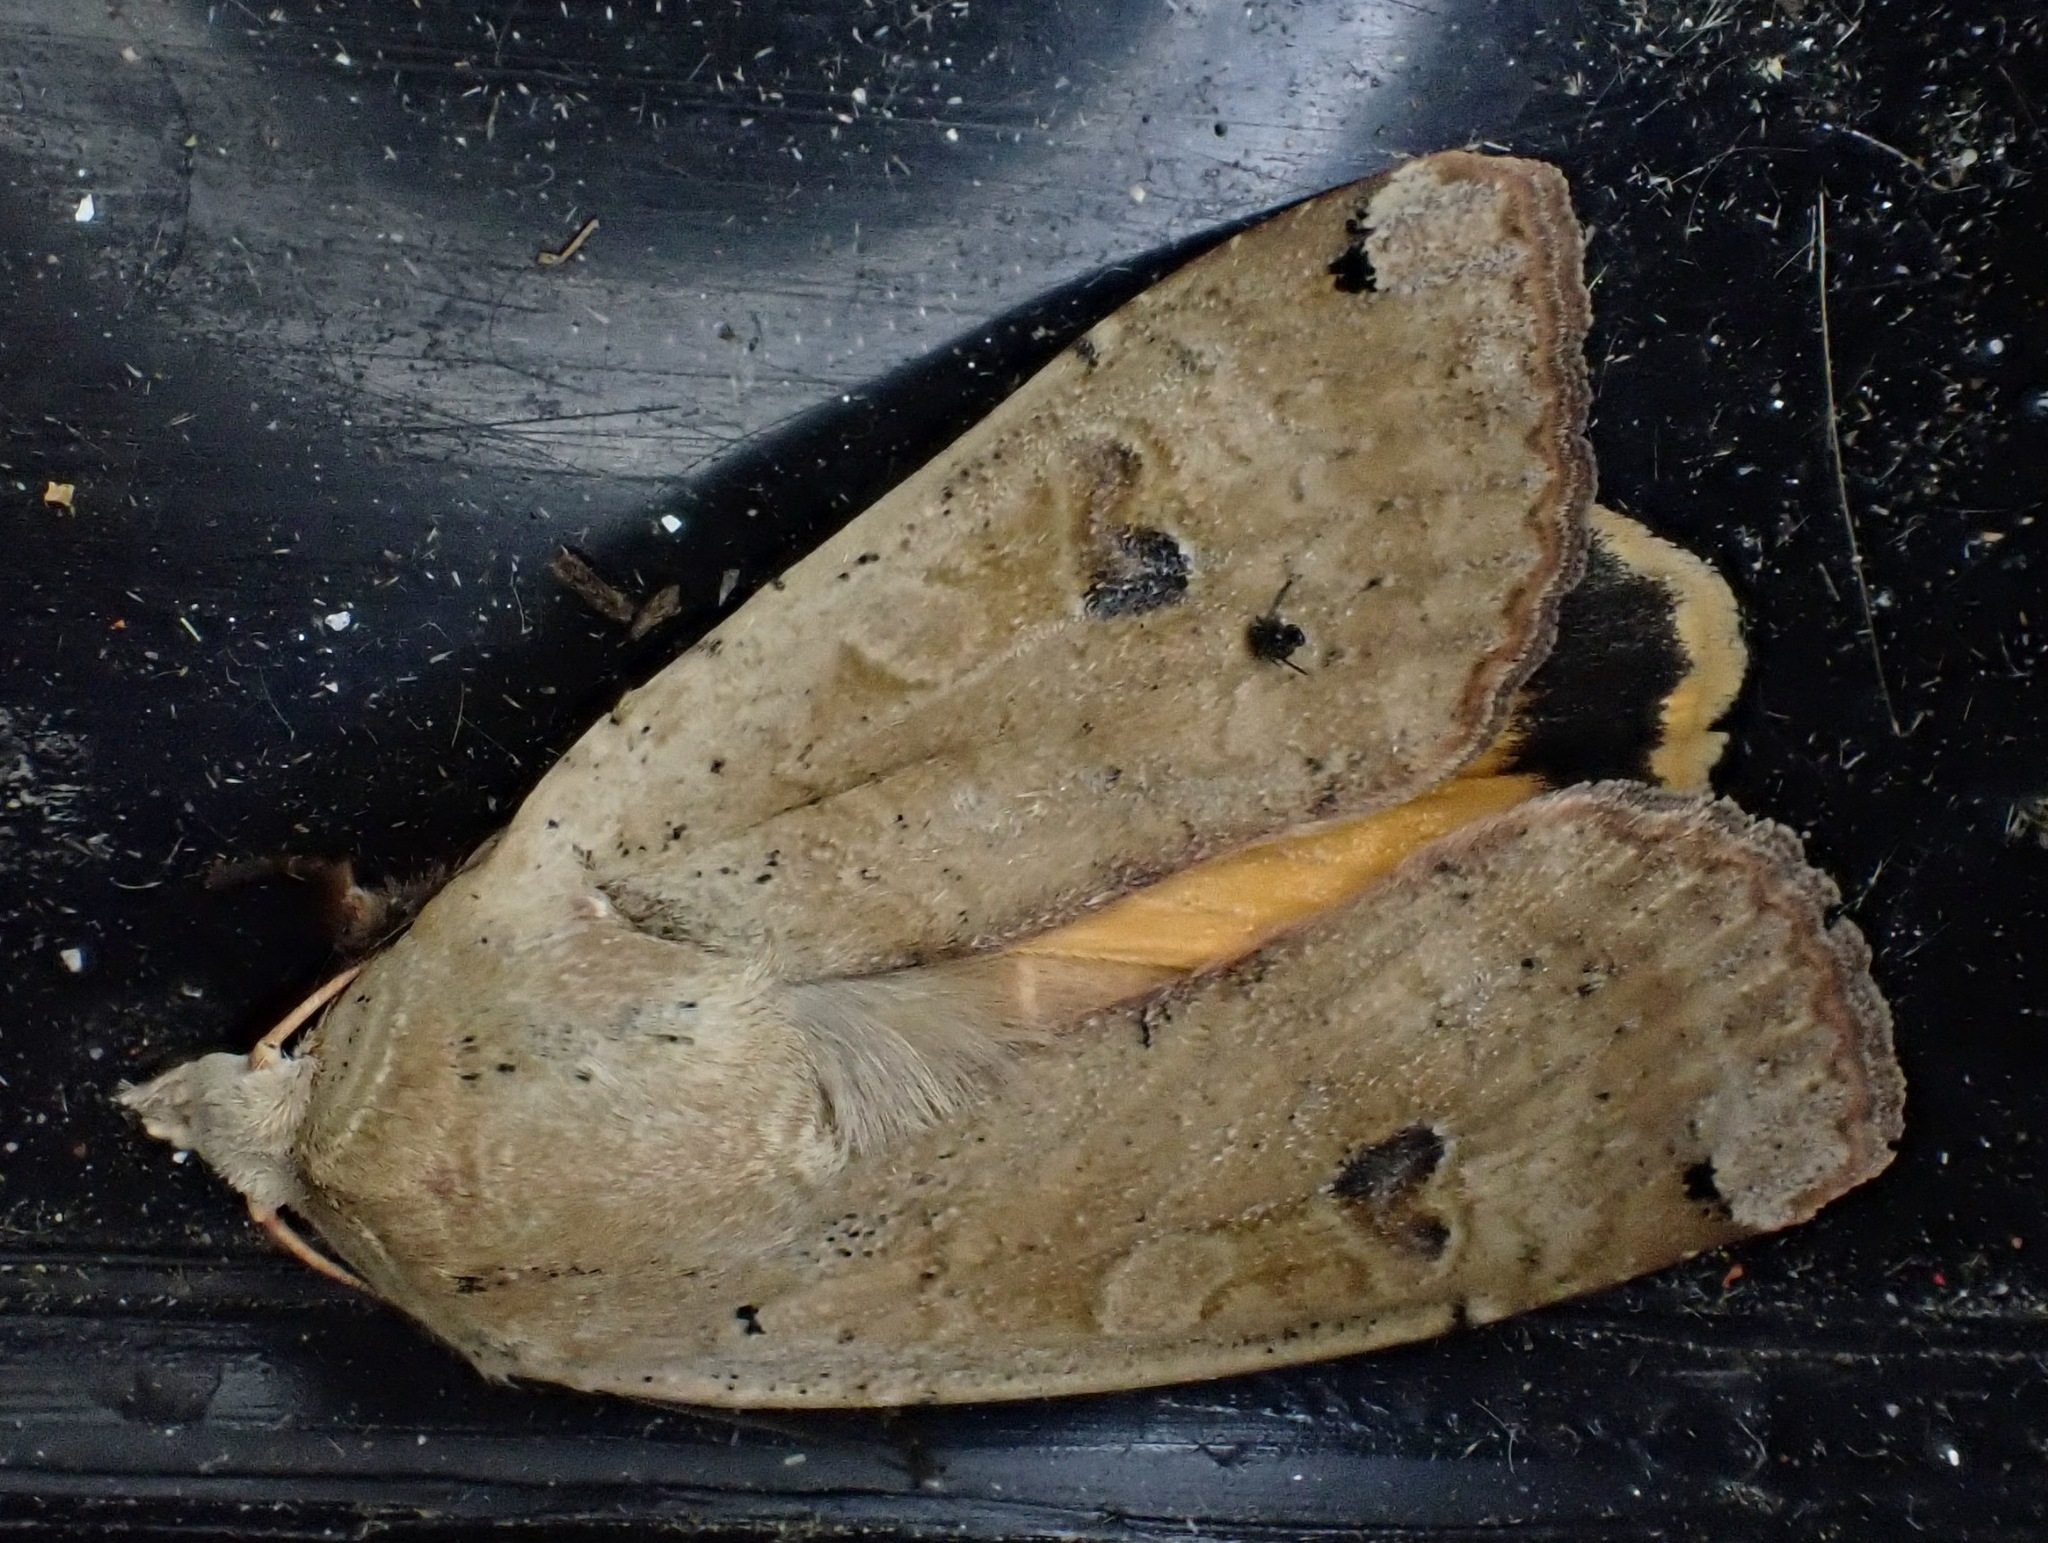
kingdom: Animalia
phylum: Arthropoda
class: Insecta
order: Lepidoptera
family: Noctuidae
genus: Noctua
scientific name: Noctua pronuba
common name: Large yellow underwing
